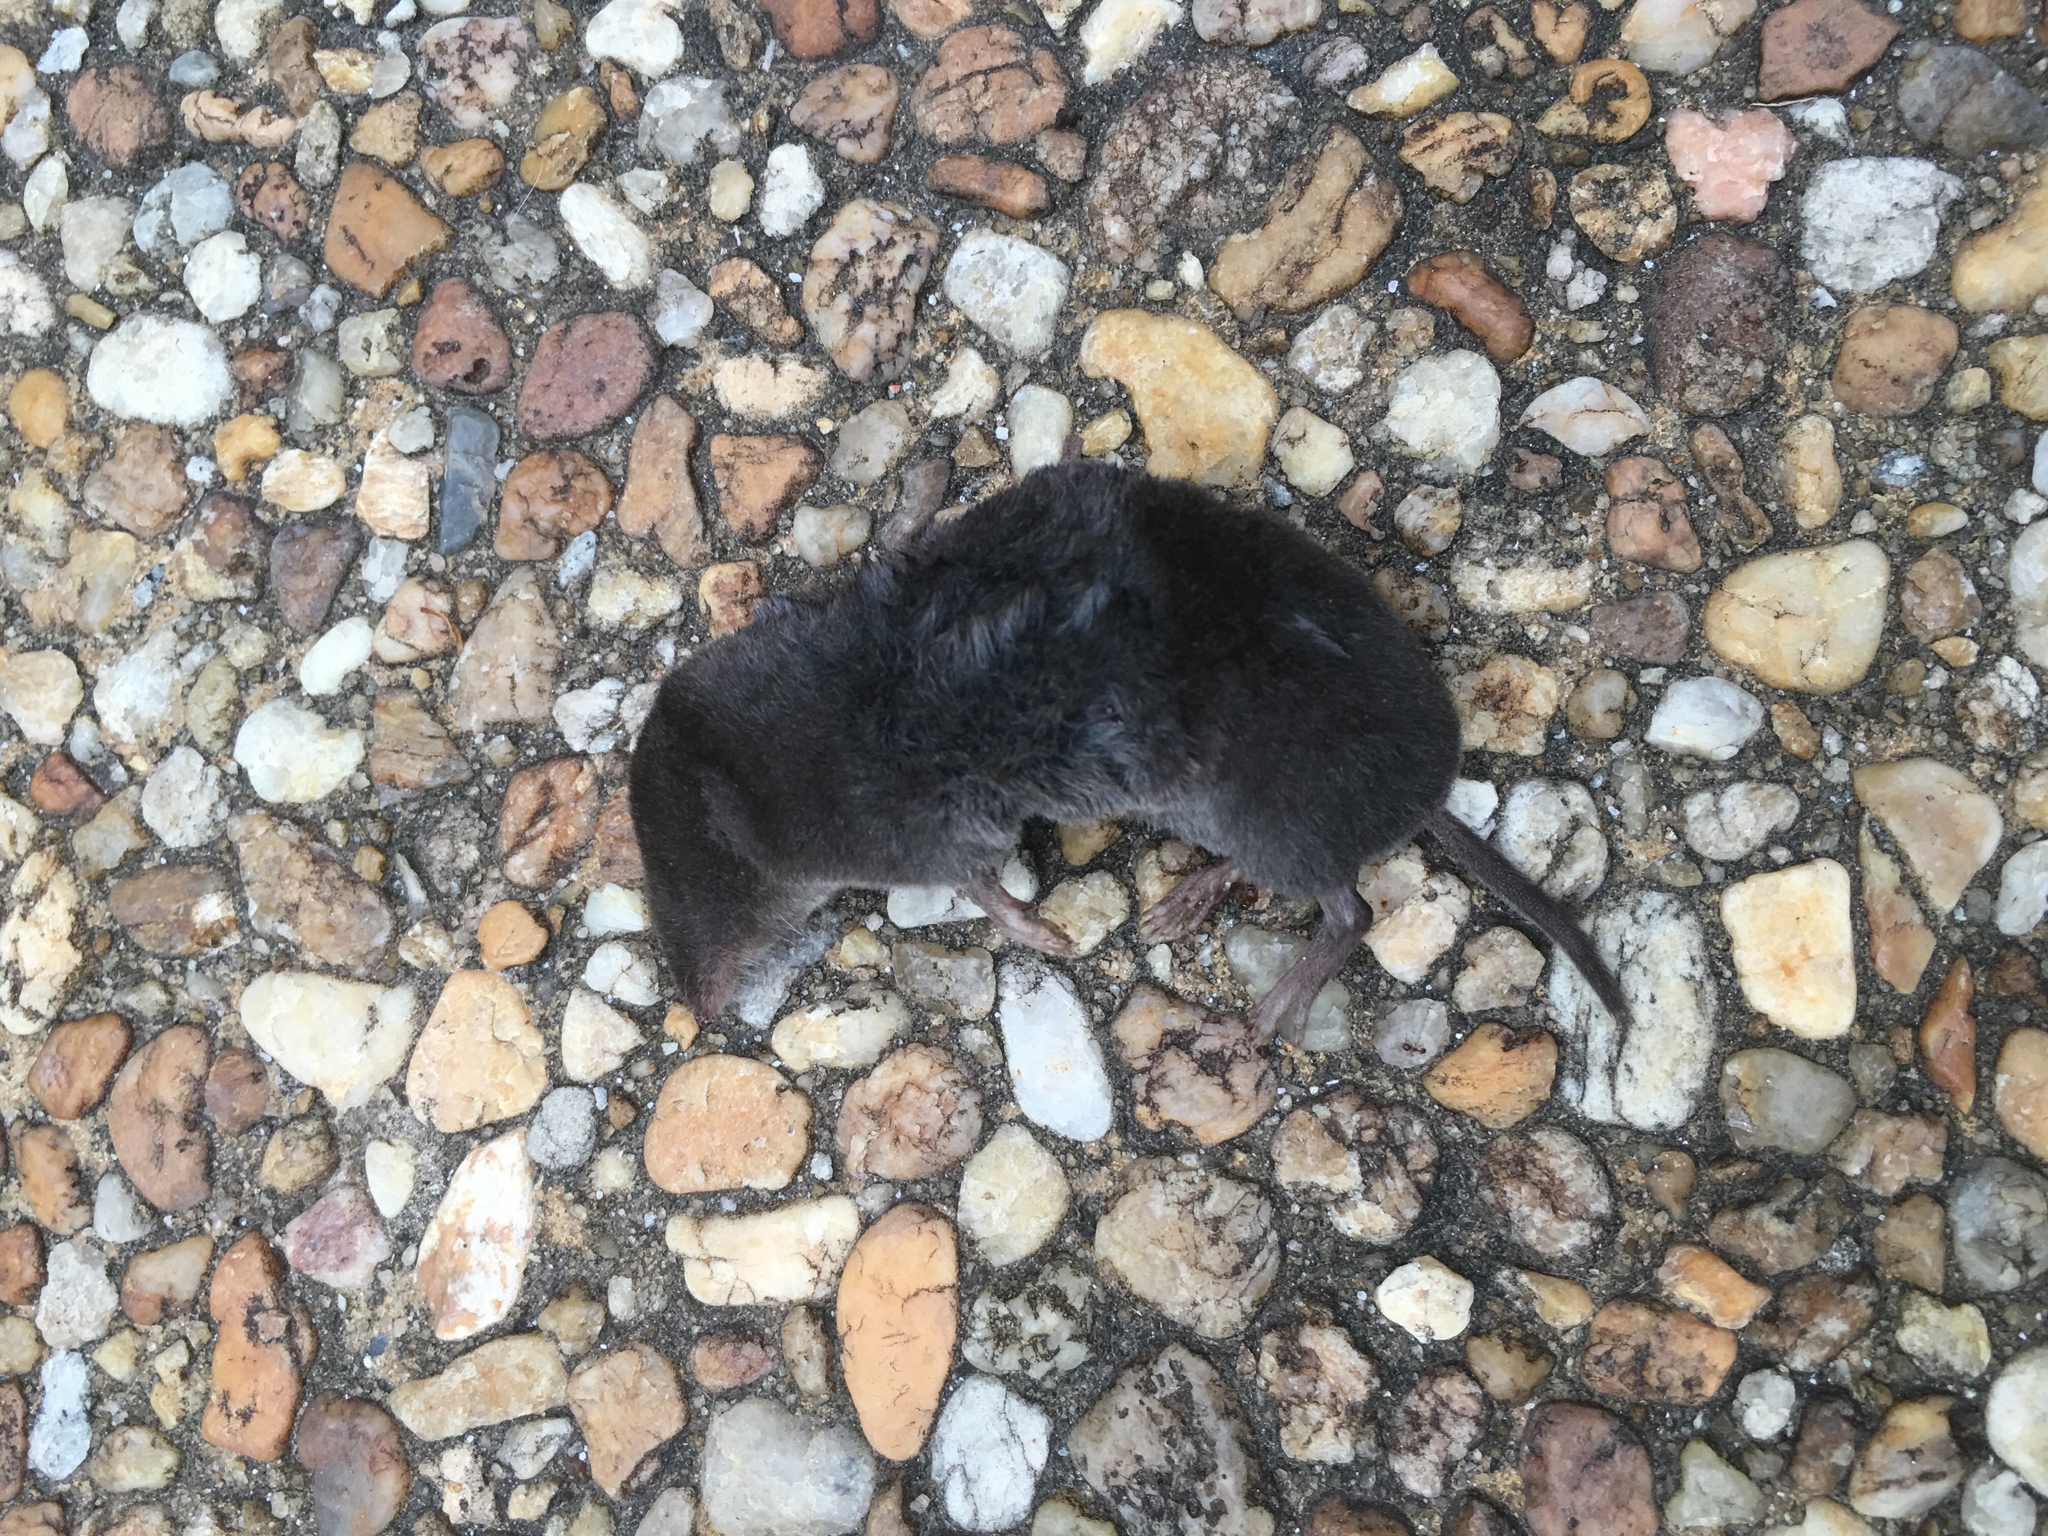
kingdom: Animalia
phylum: Chordata
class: Mammalia
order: Soricomorpha
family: Soricidae
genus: Blarina
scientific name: Blarina brevicauda
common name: Northern short-tailed shrew
